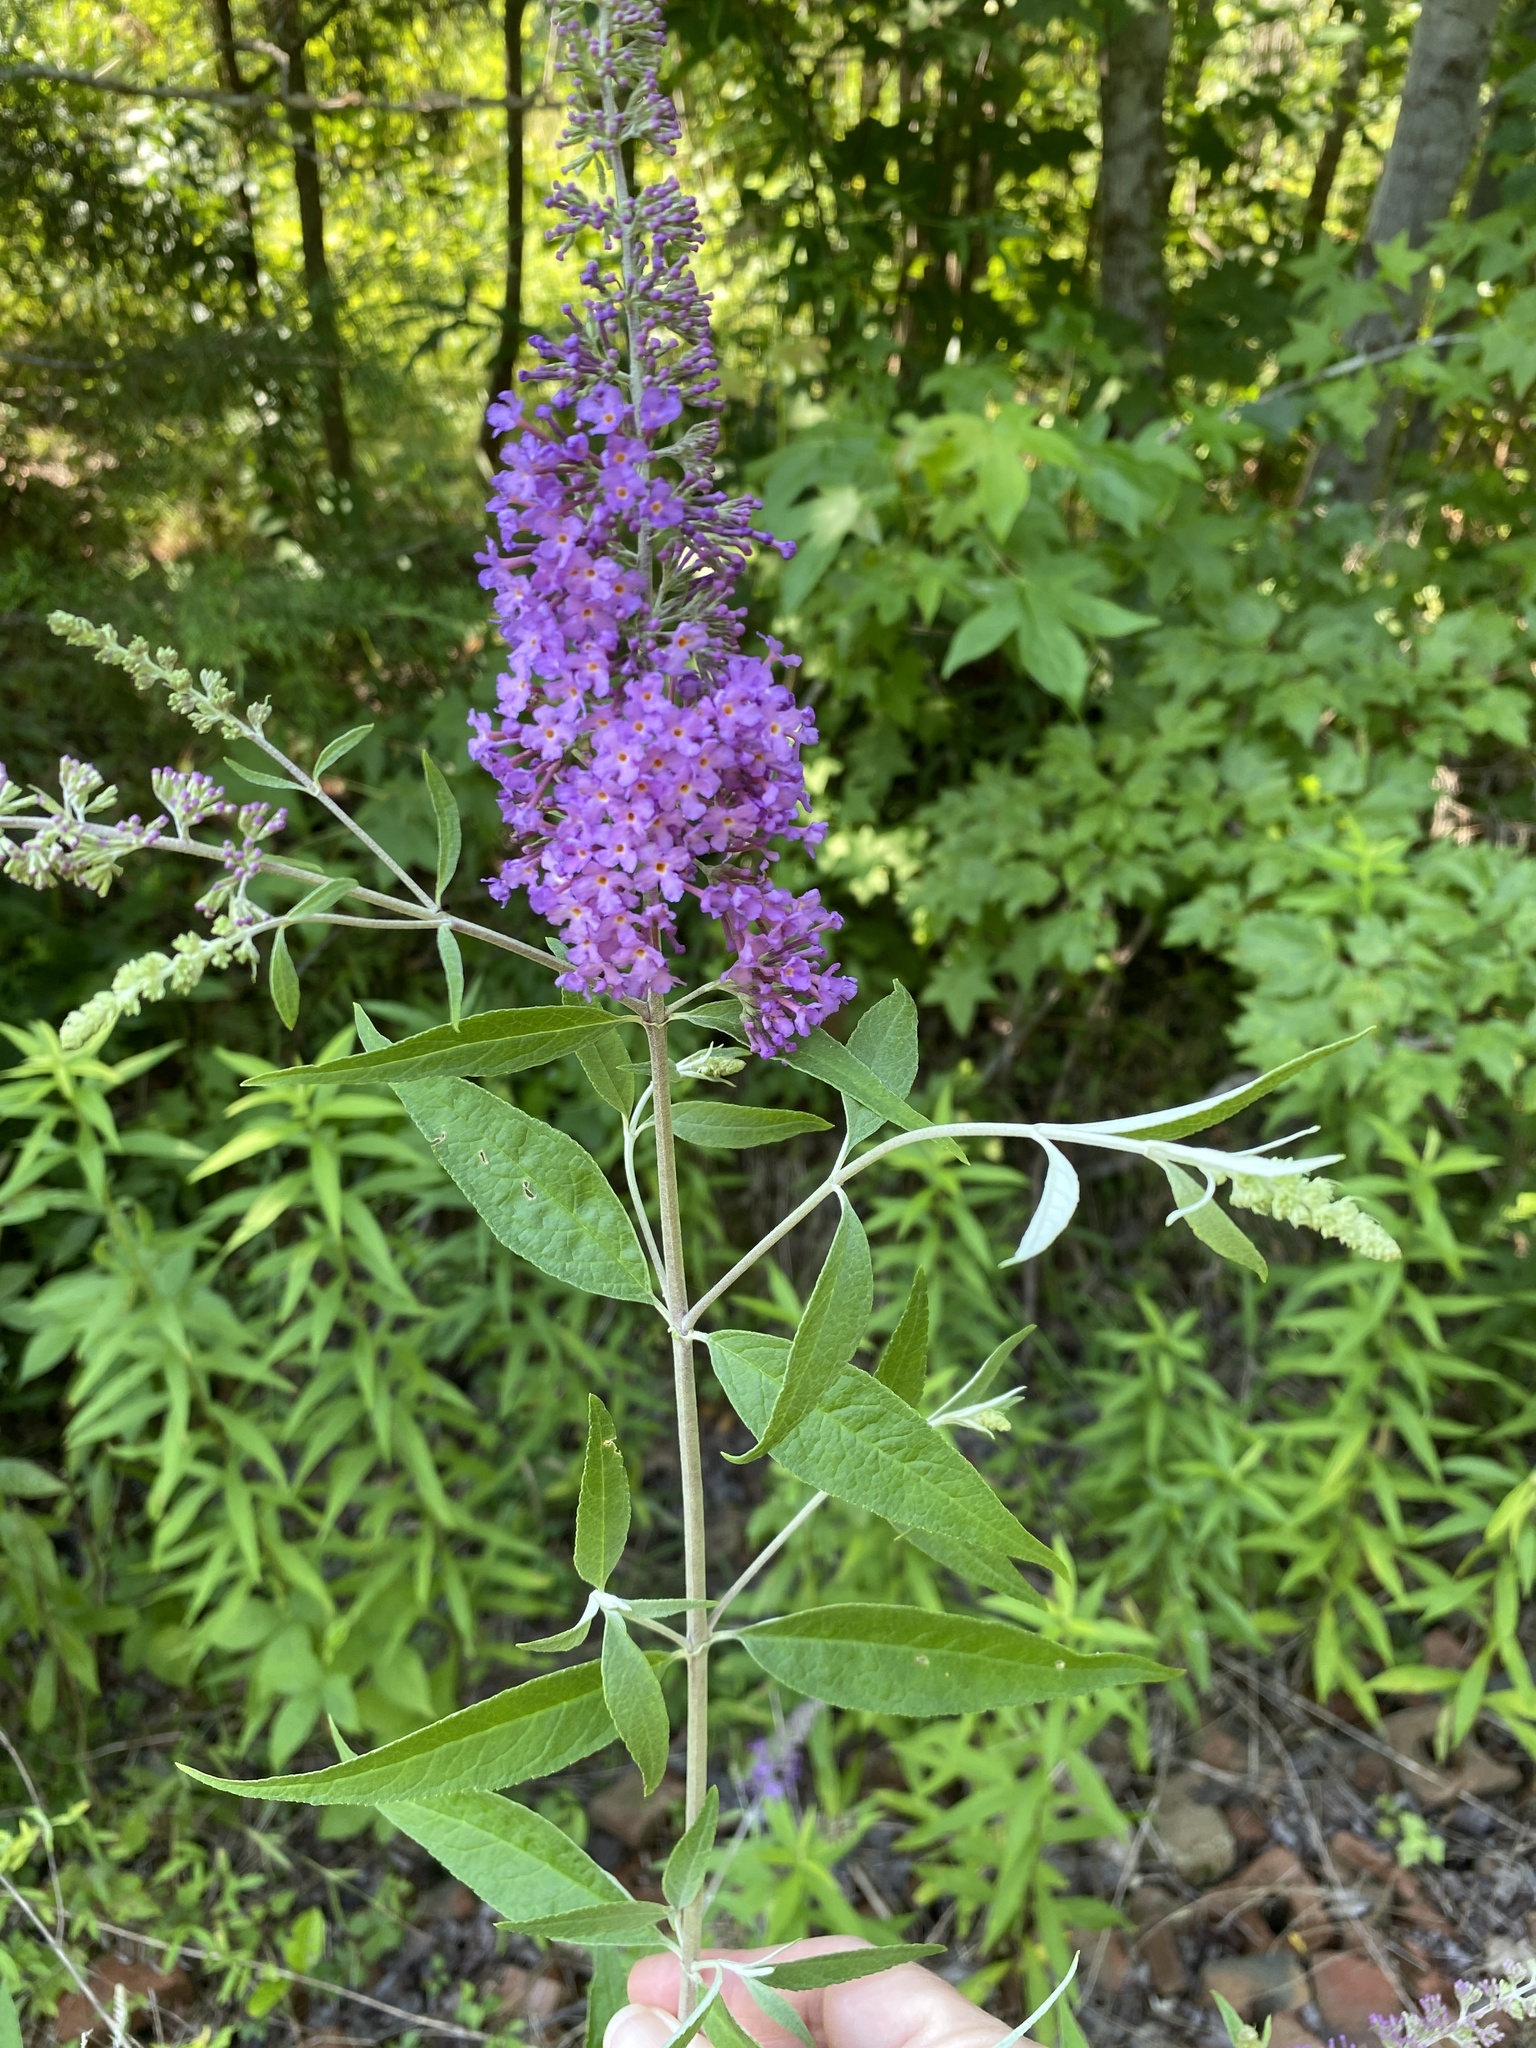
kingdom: Plantae
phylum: Tracheophyta
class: Magnoliopsida
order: Lamiales
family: Scrophulariaceae
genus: Buddleja
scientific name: Buddleja davidii
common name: Butterfly-bush
